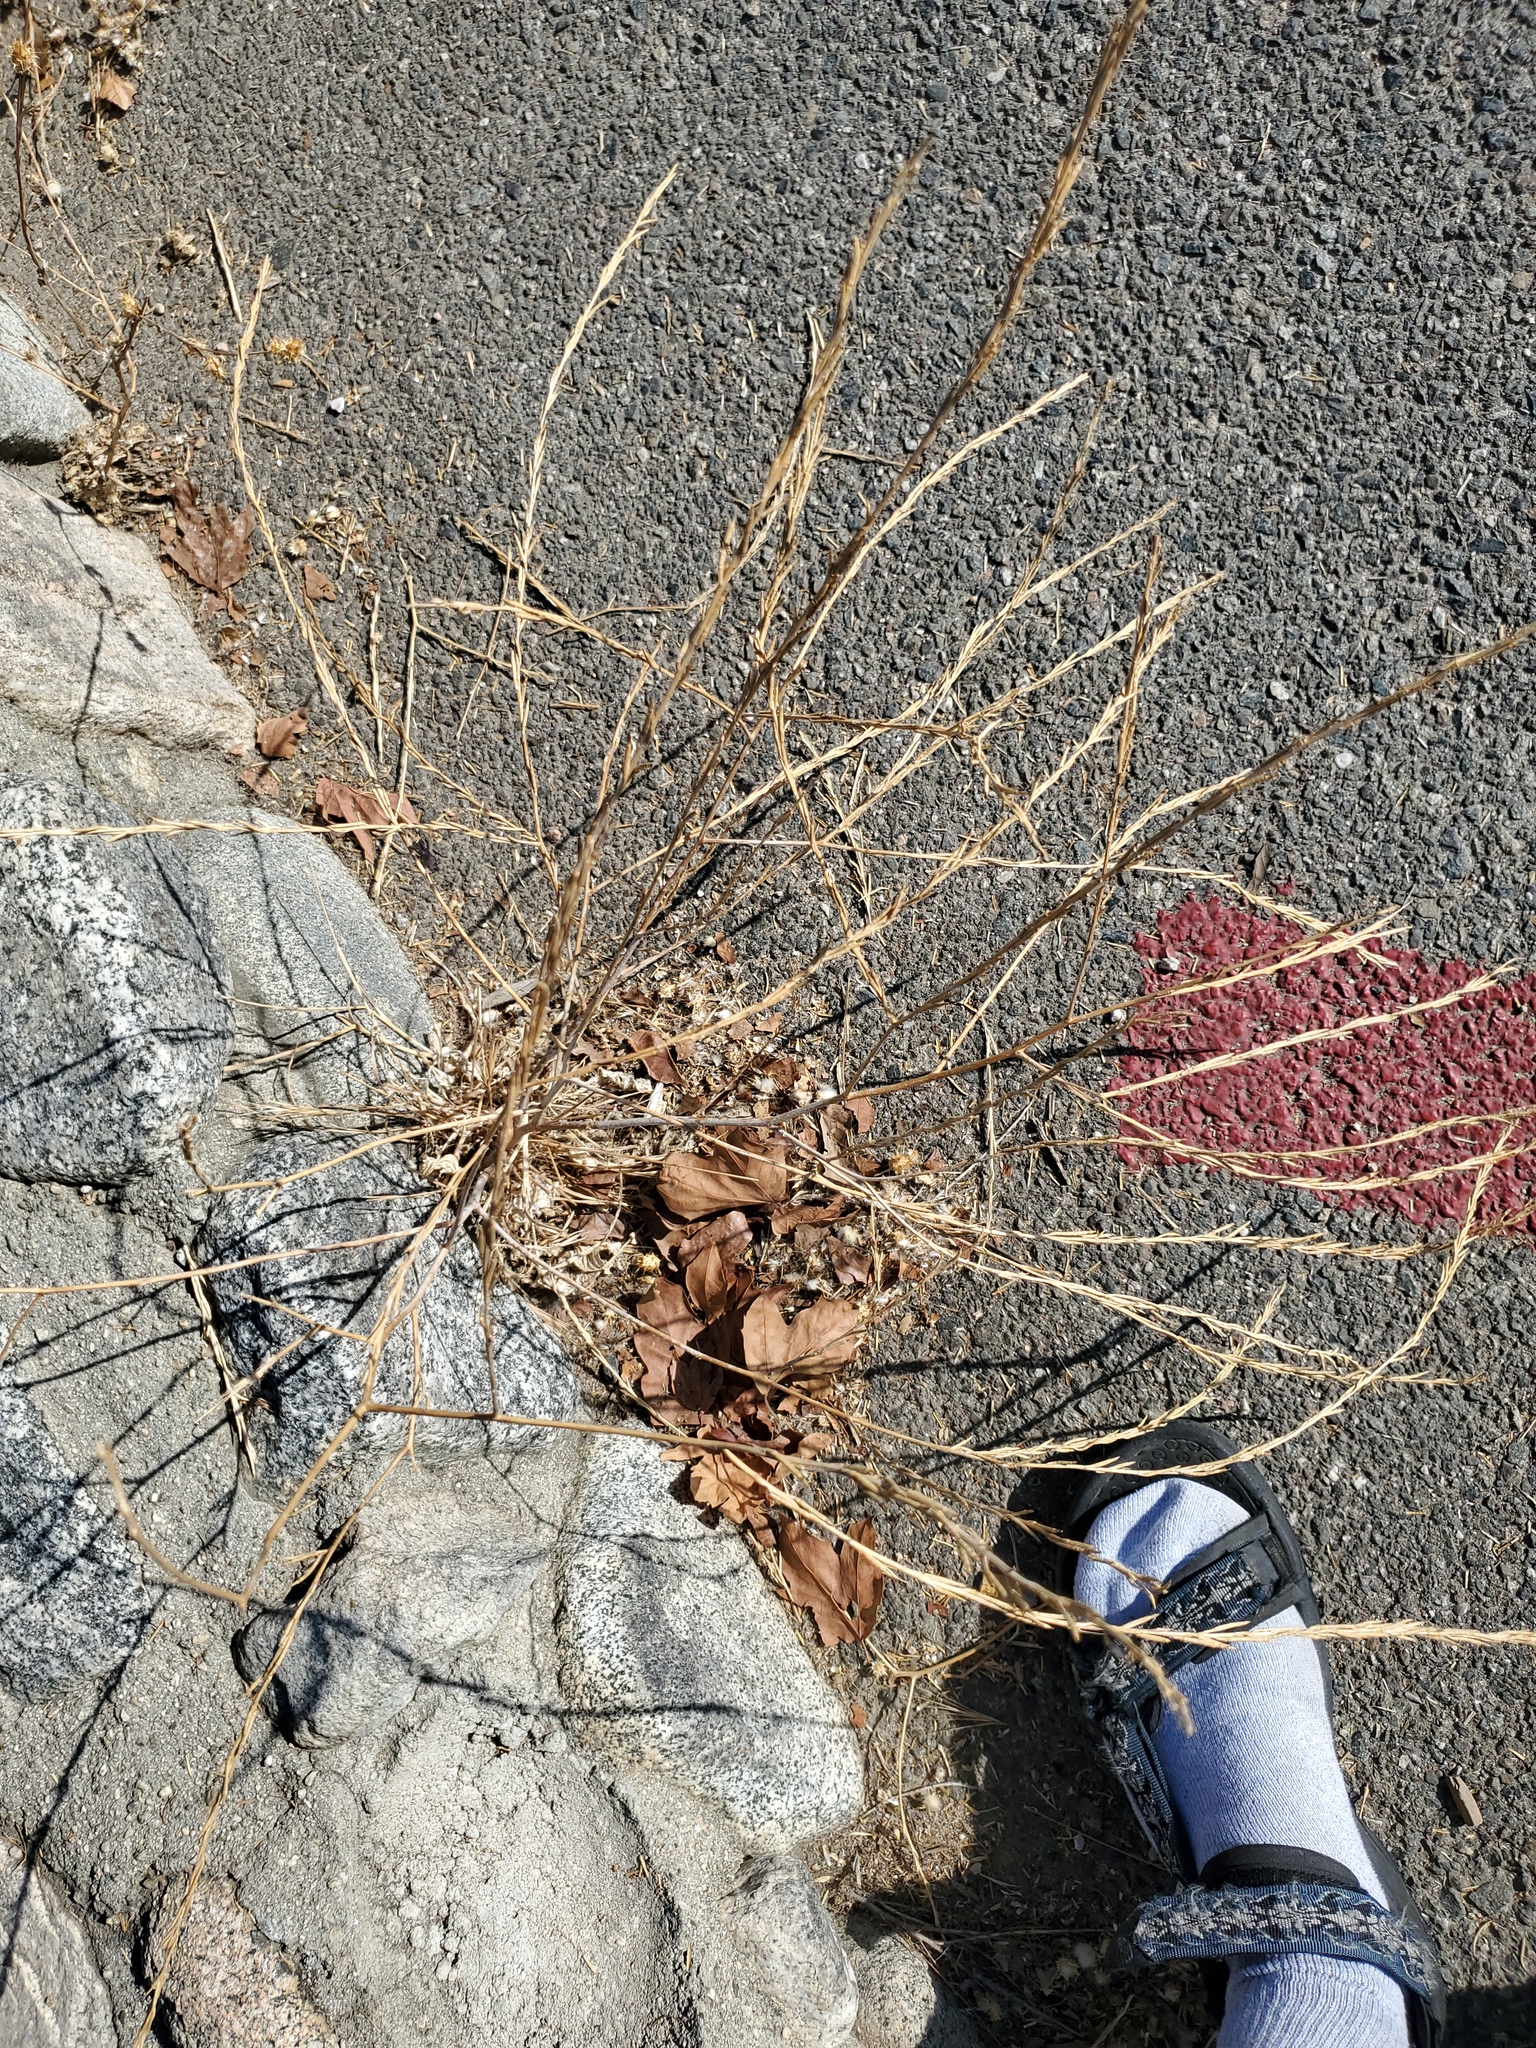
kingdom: Plantae
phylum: Tracheophyta
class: Magnoliopsida
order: Brassicales
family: Brassicaceae
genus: Hirschfeldia
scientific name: Hirschfeldia incana
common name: Hoary mustard
